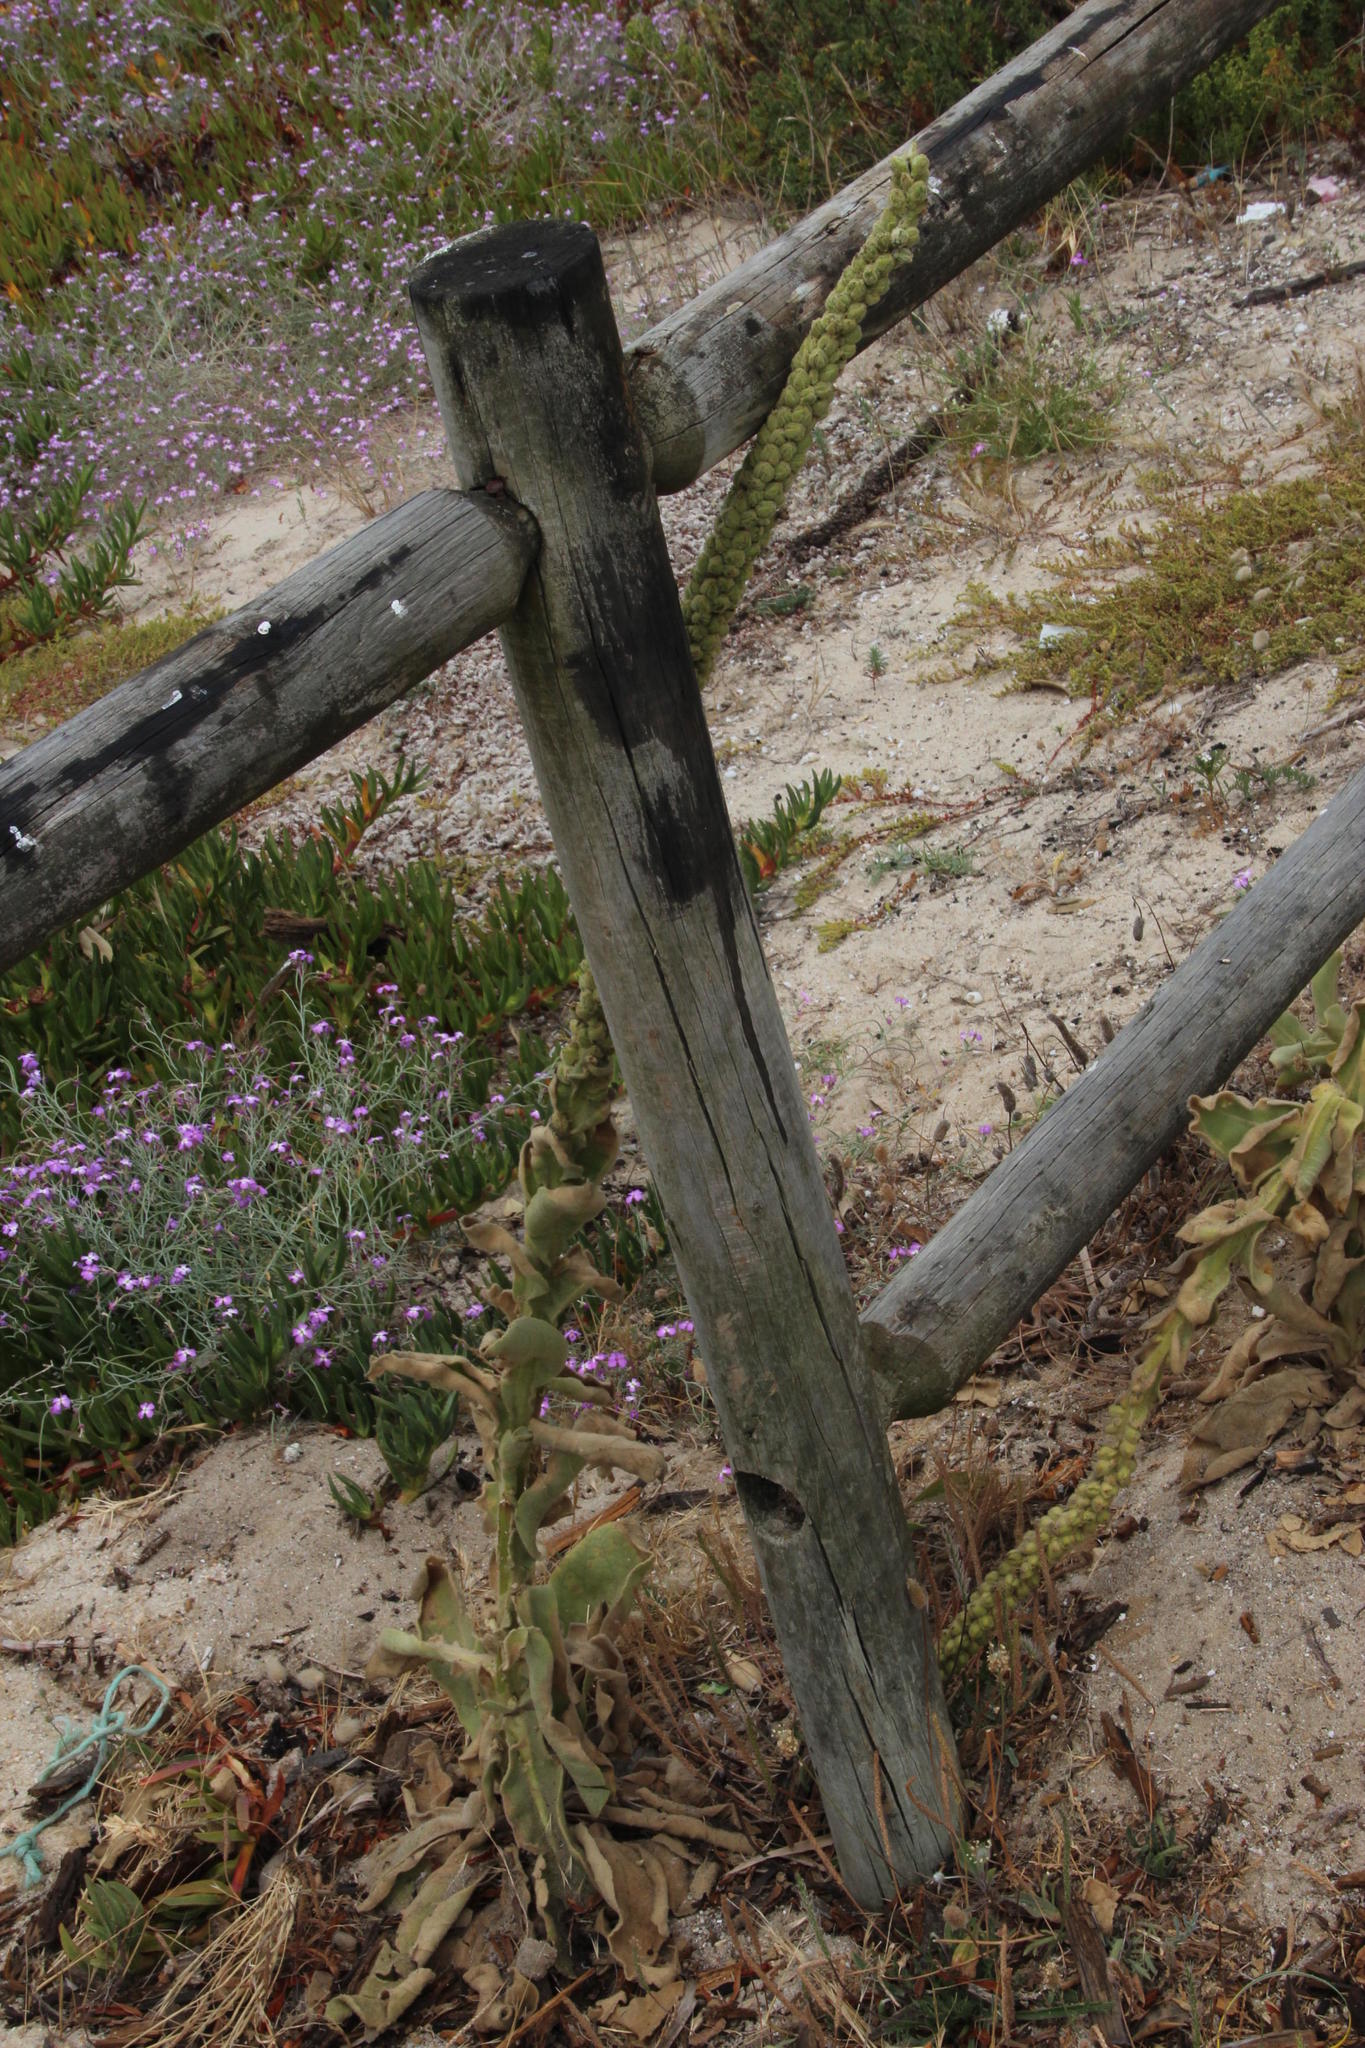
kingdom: Plantae
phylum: Tracheophyta
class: Magnoliopsida
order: Lamiales
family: Scrophulariaceae
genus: Verbascum
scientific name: Verbascum litigiosum
